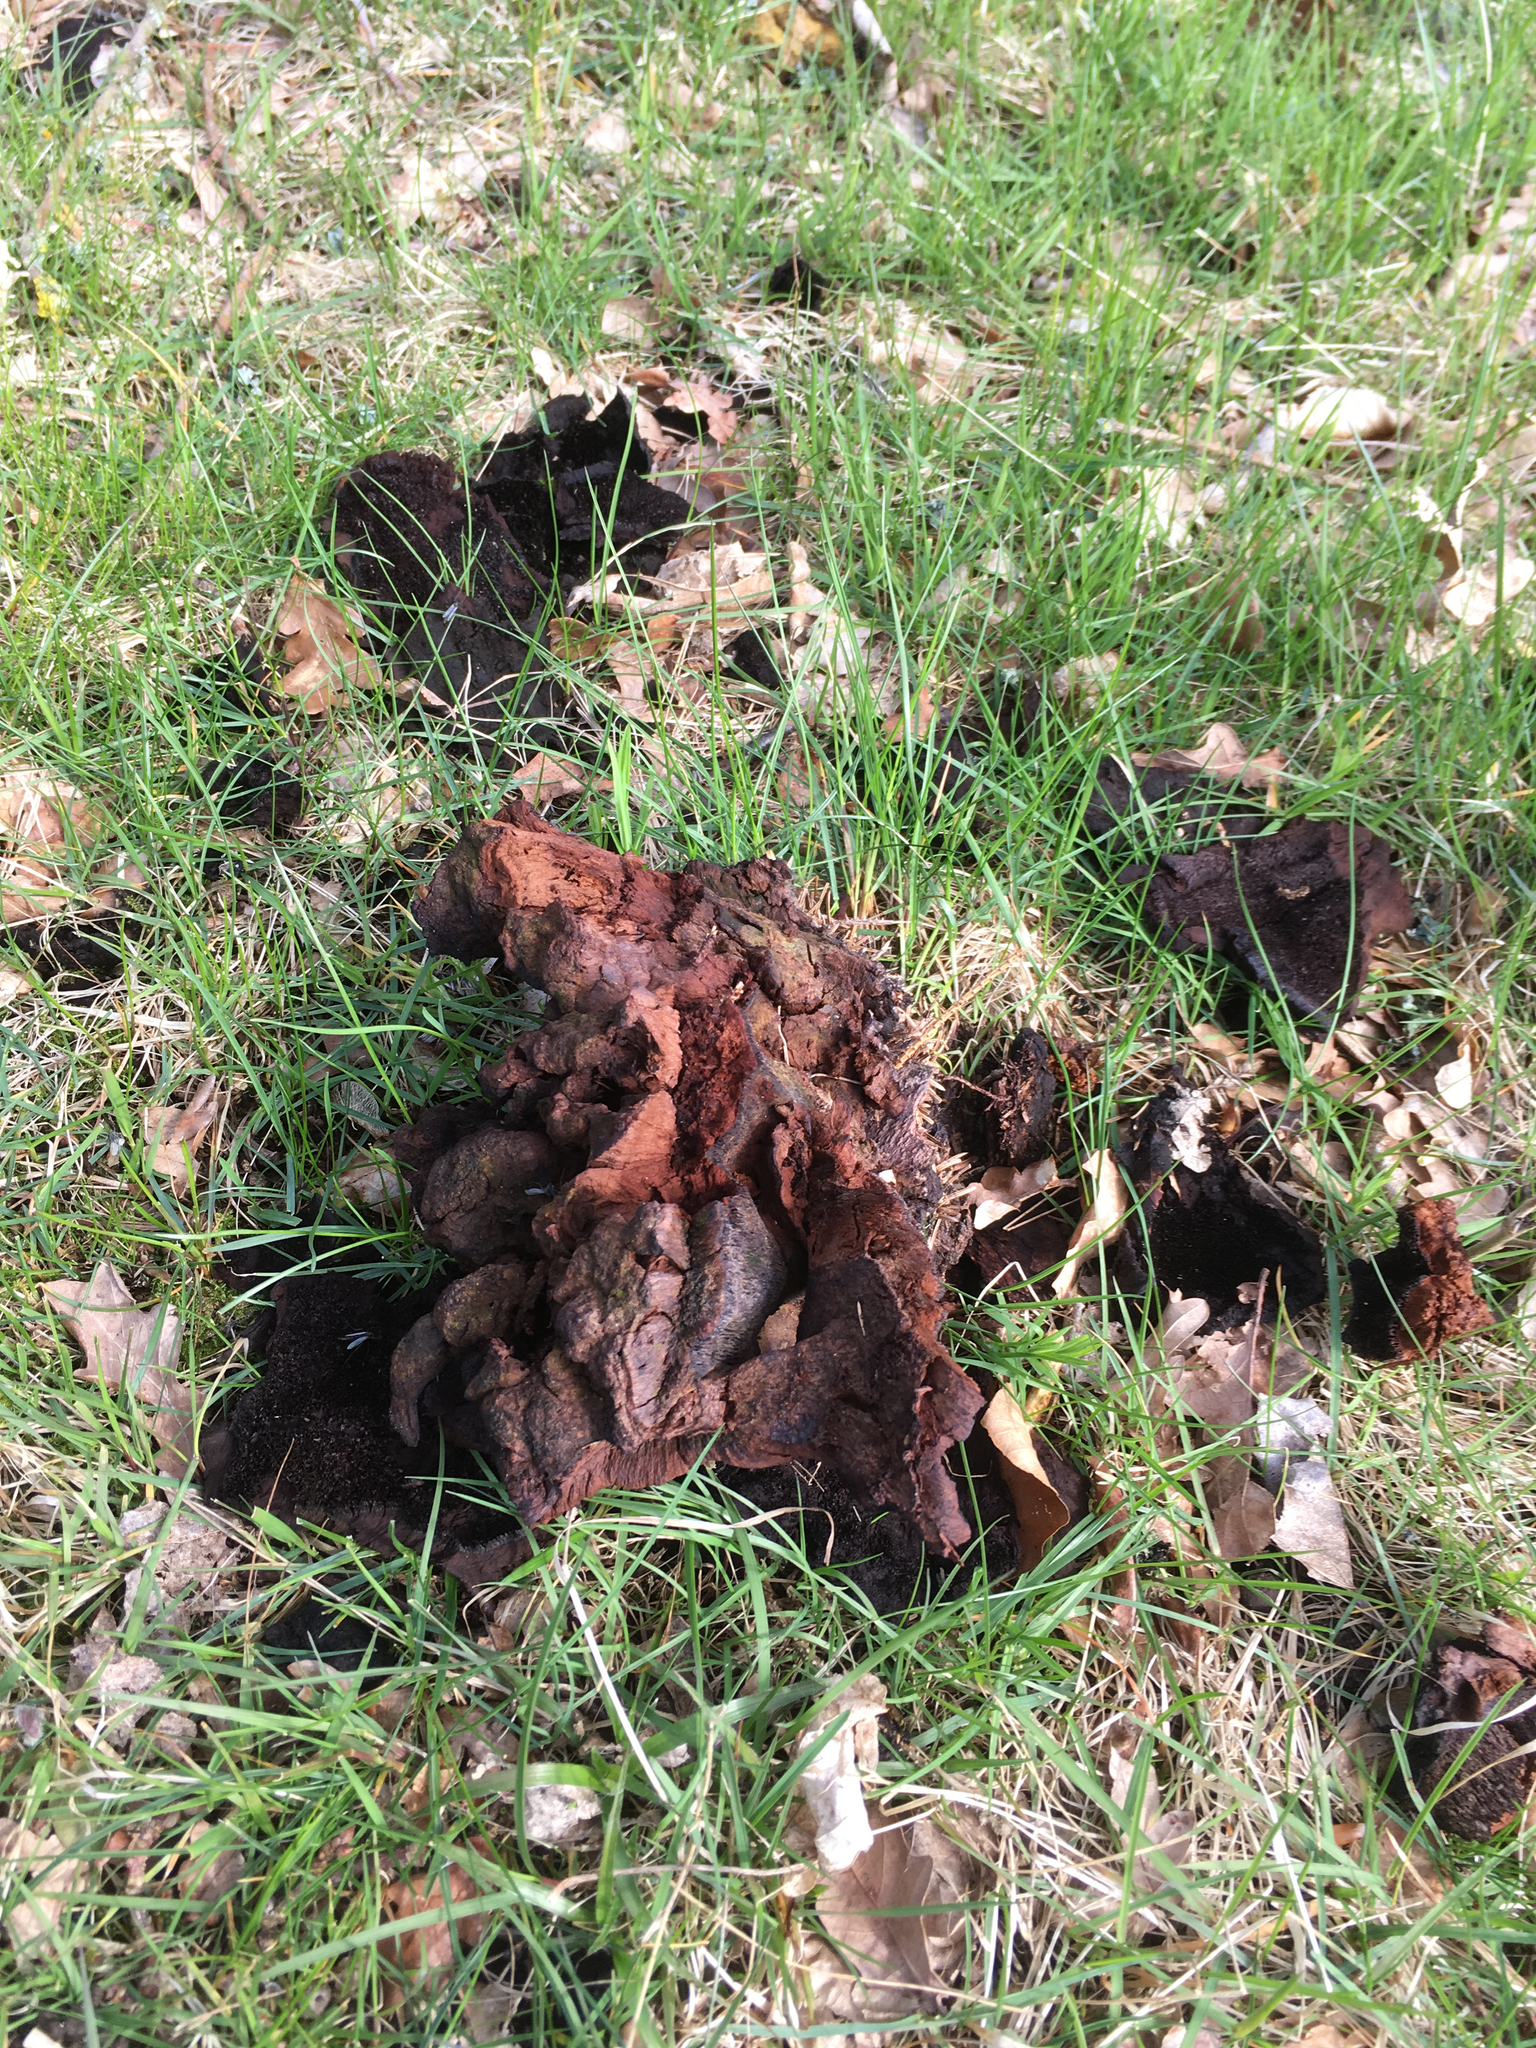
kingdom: Fungi
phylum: Basidiomycota
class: Agaricomycetes
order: Polyporales
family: Laetiporaceae
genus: Phaeolus
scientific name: Phaeolus schweinitzii
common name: Dyer's mazegill
